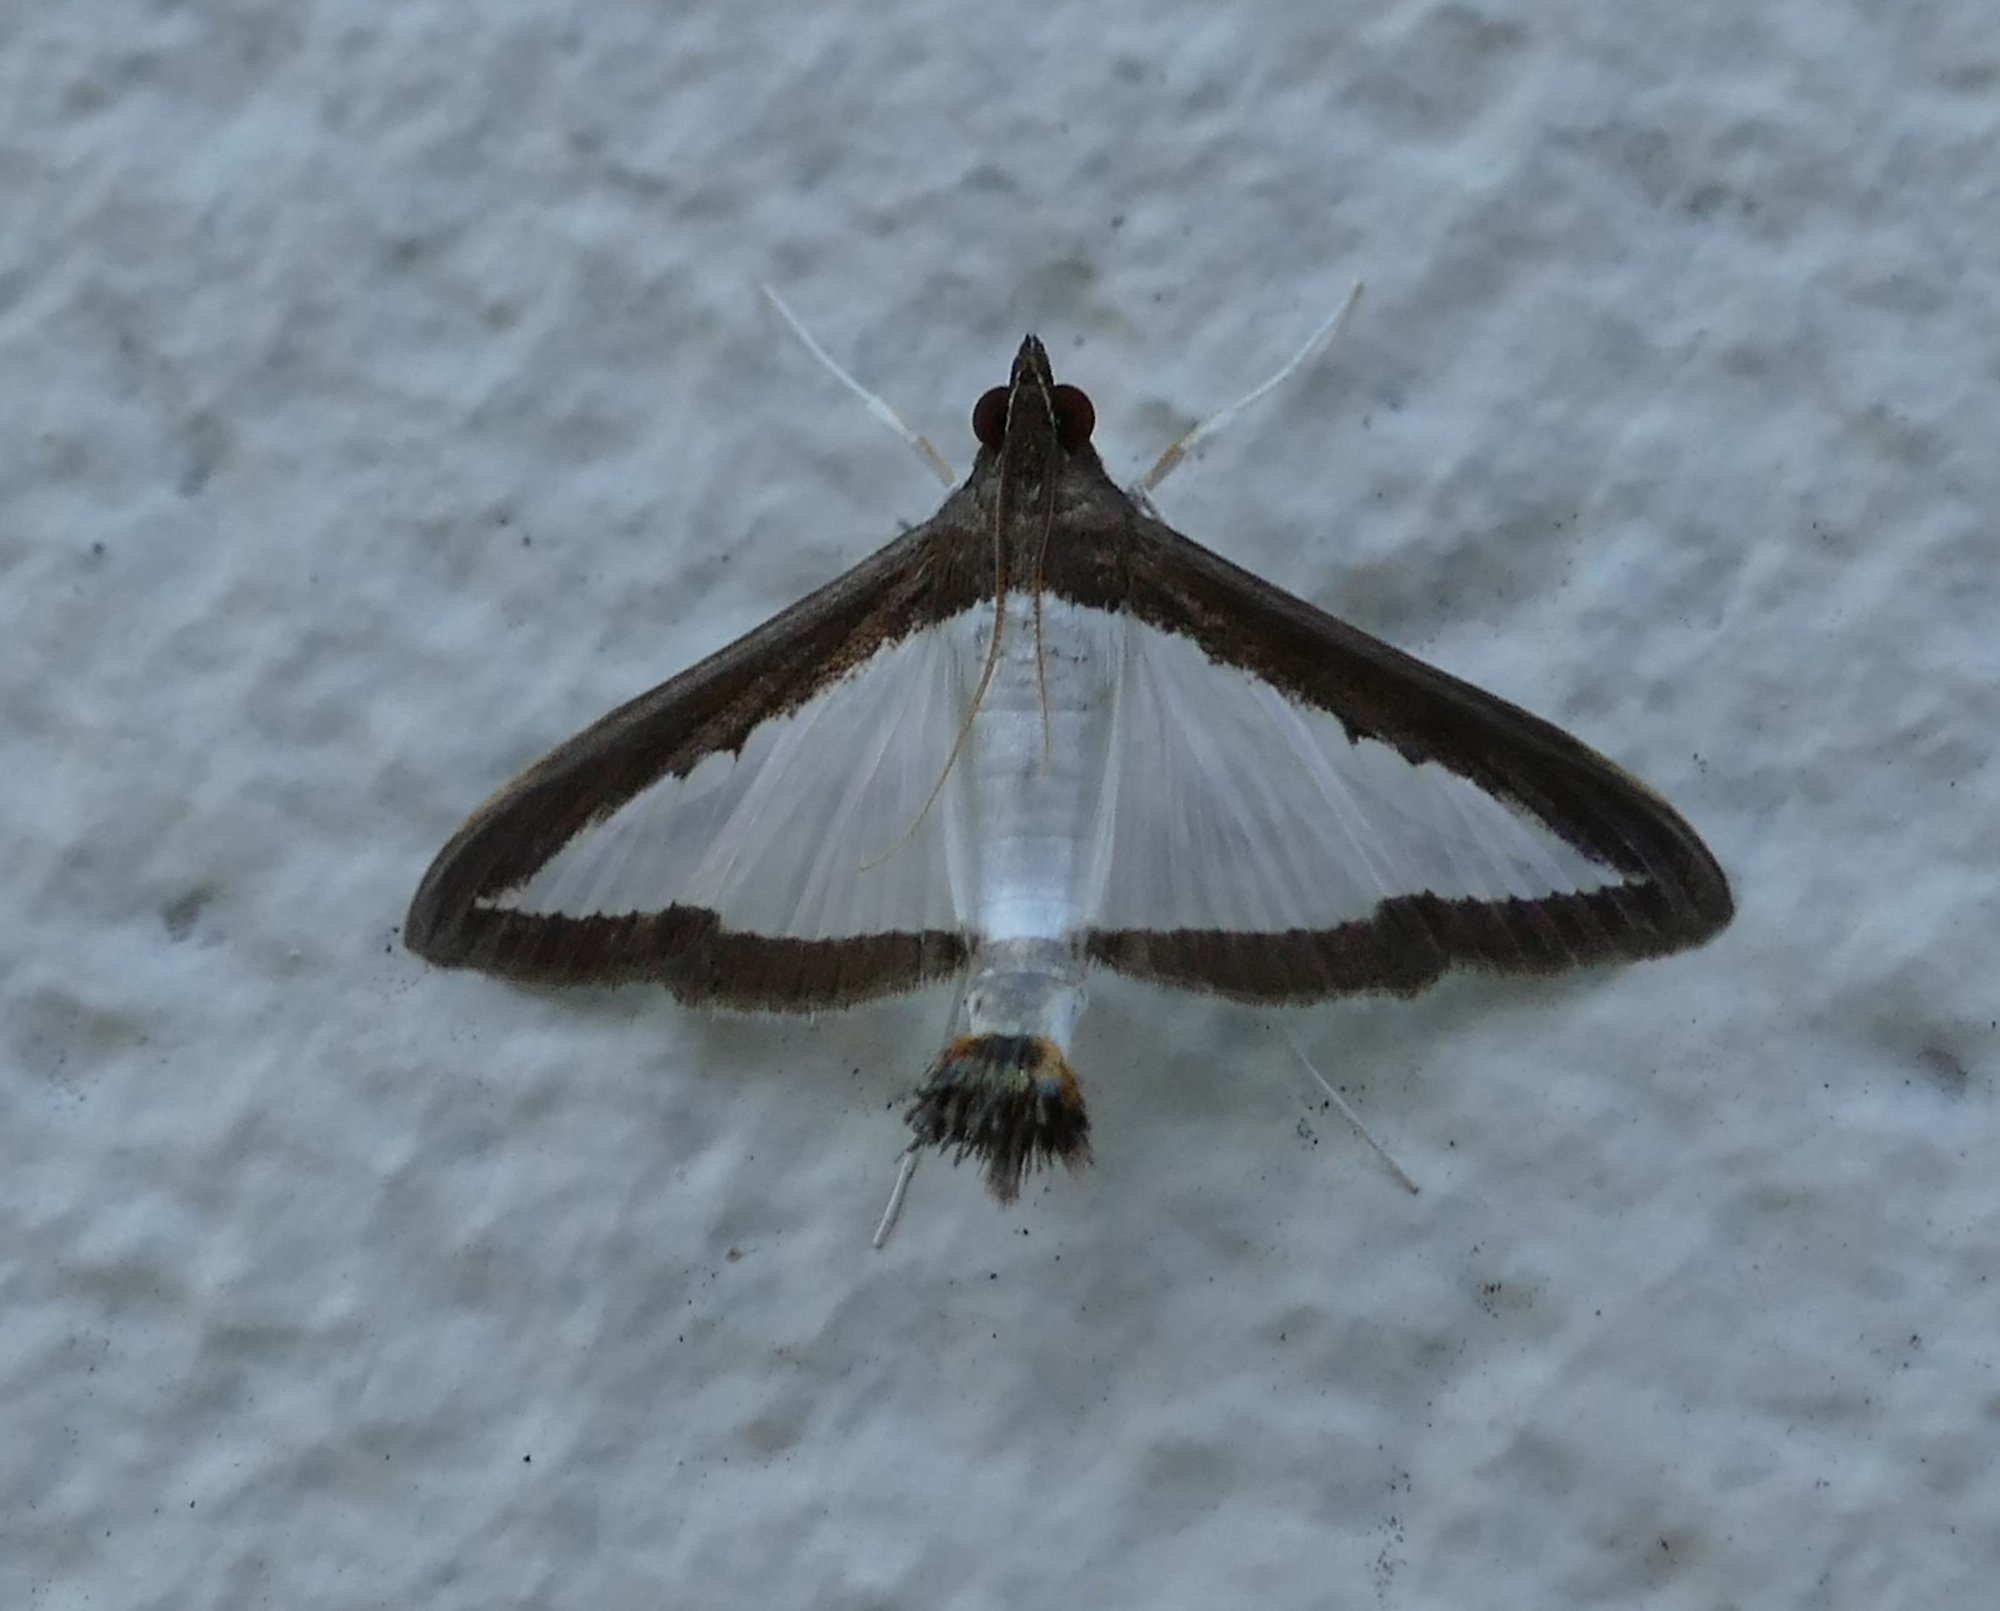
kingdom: Animalia
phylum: Arthropoda
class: Insecta
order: Lepidoptera
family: Crambidae
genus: Diaphania
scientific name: Diaphania hyalinata
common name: Melonworm
